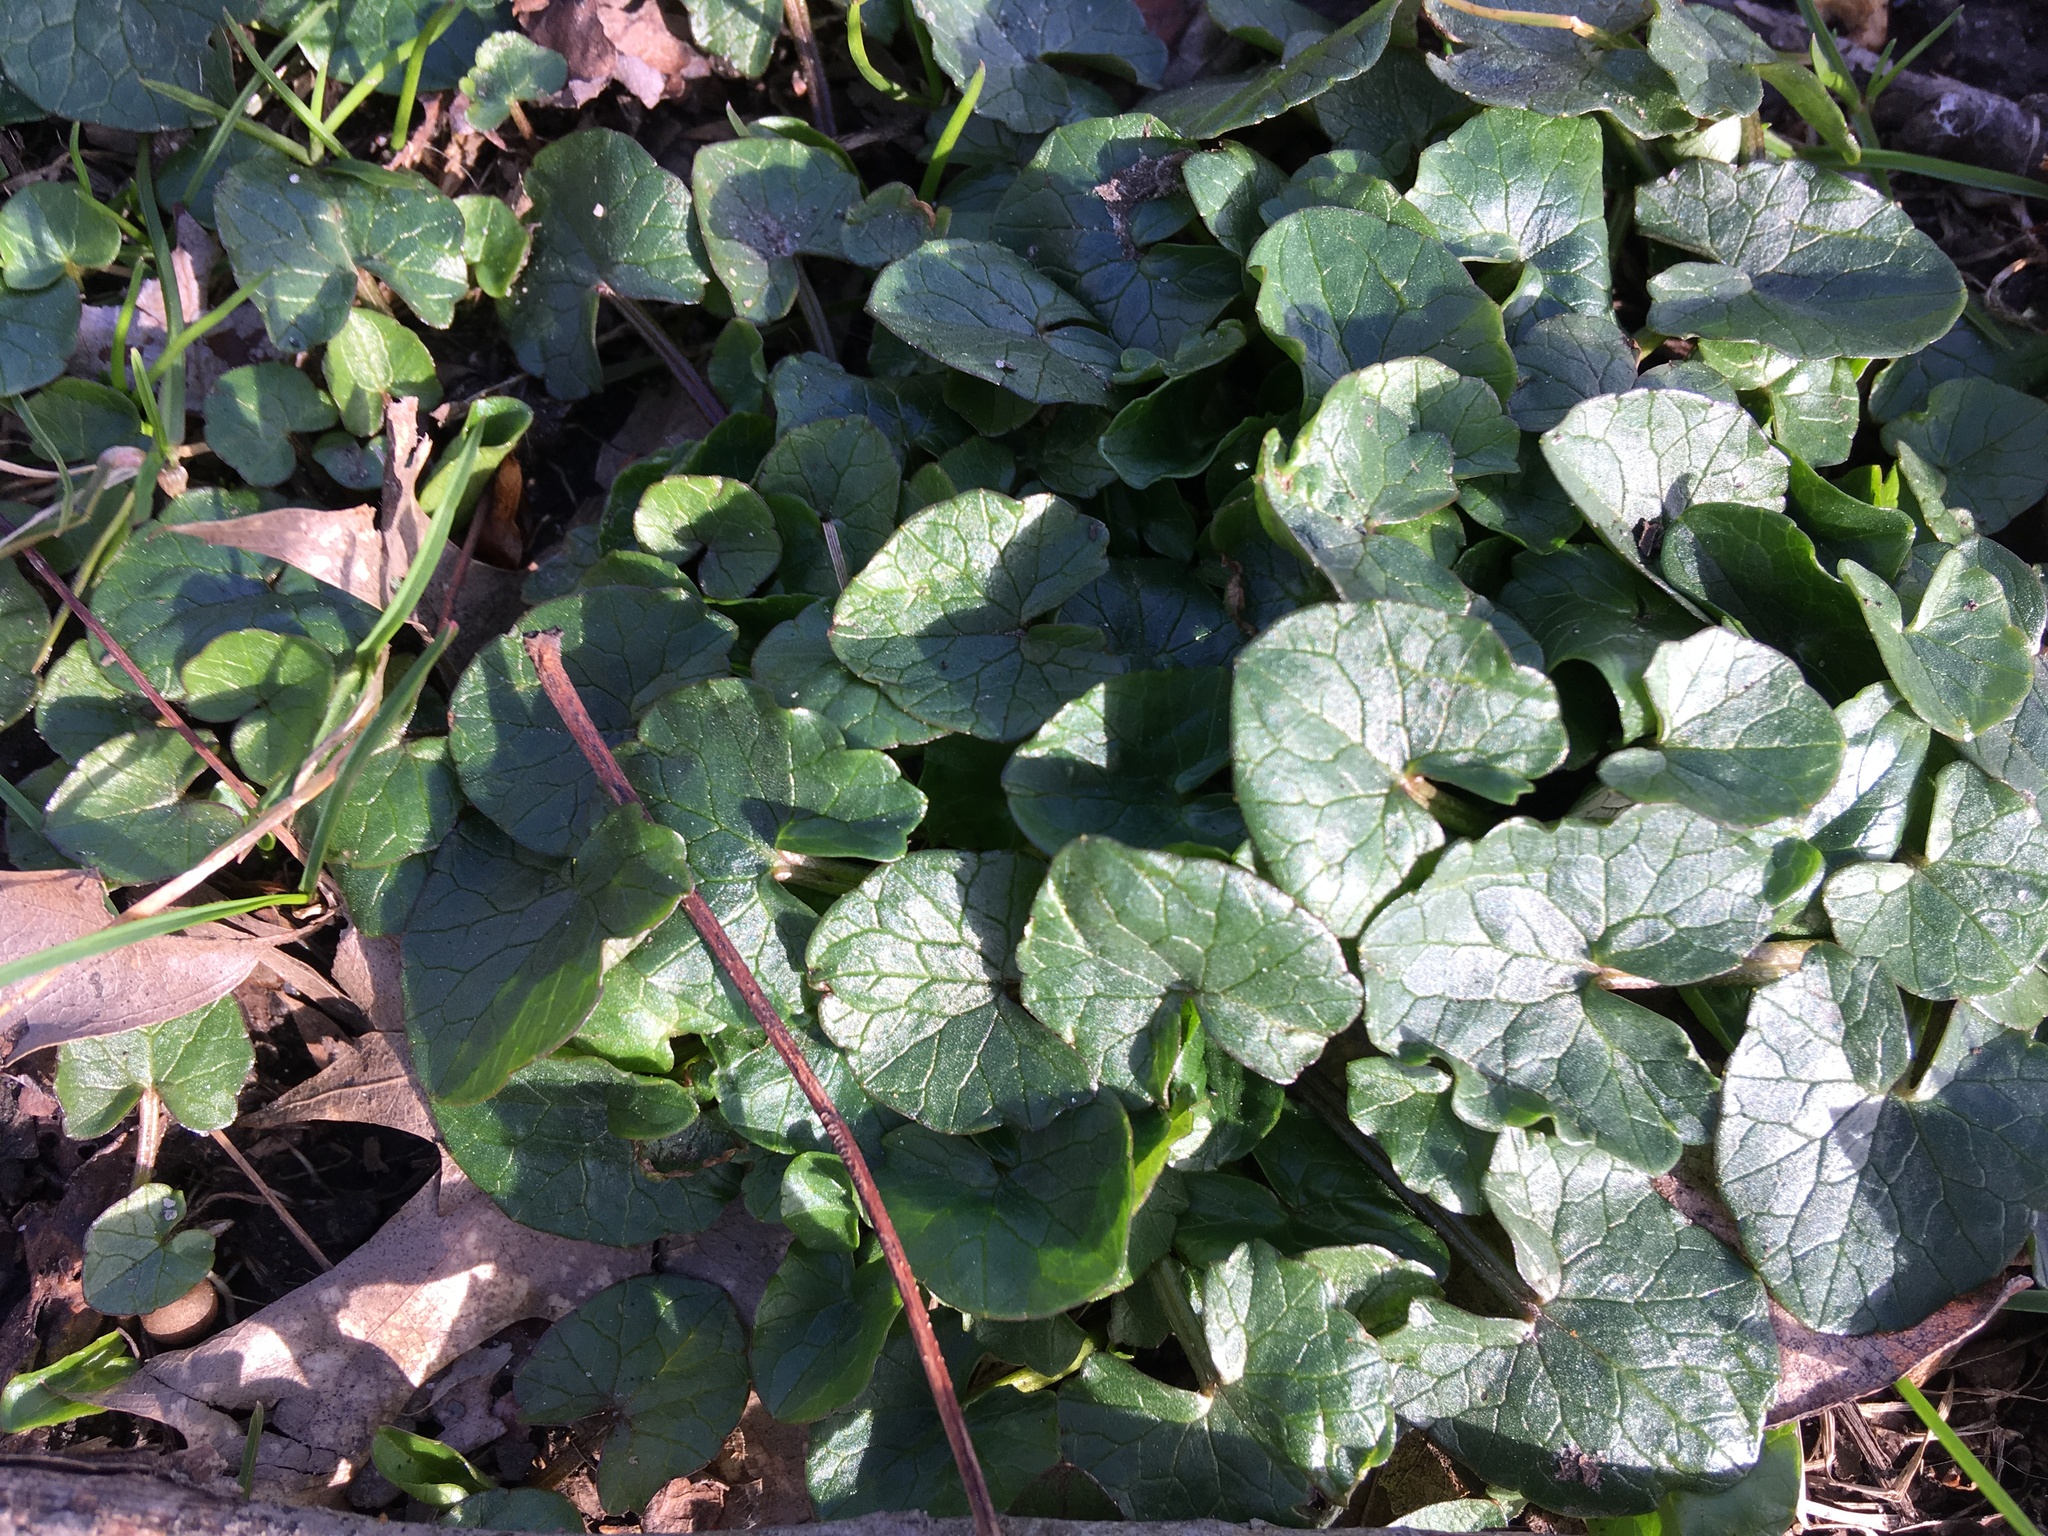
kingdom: Plantae
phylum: Tracheophyta
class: Magnoliopsida
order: Ranunculales
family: Ranunculaceae
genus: Ficaria
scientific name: Ficaria verna
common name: Lesser celandine
